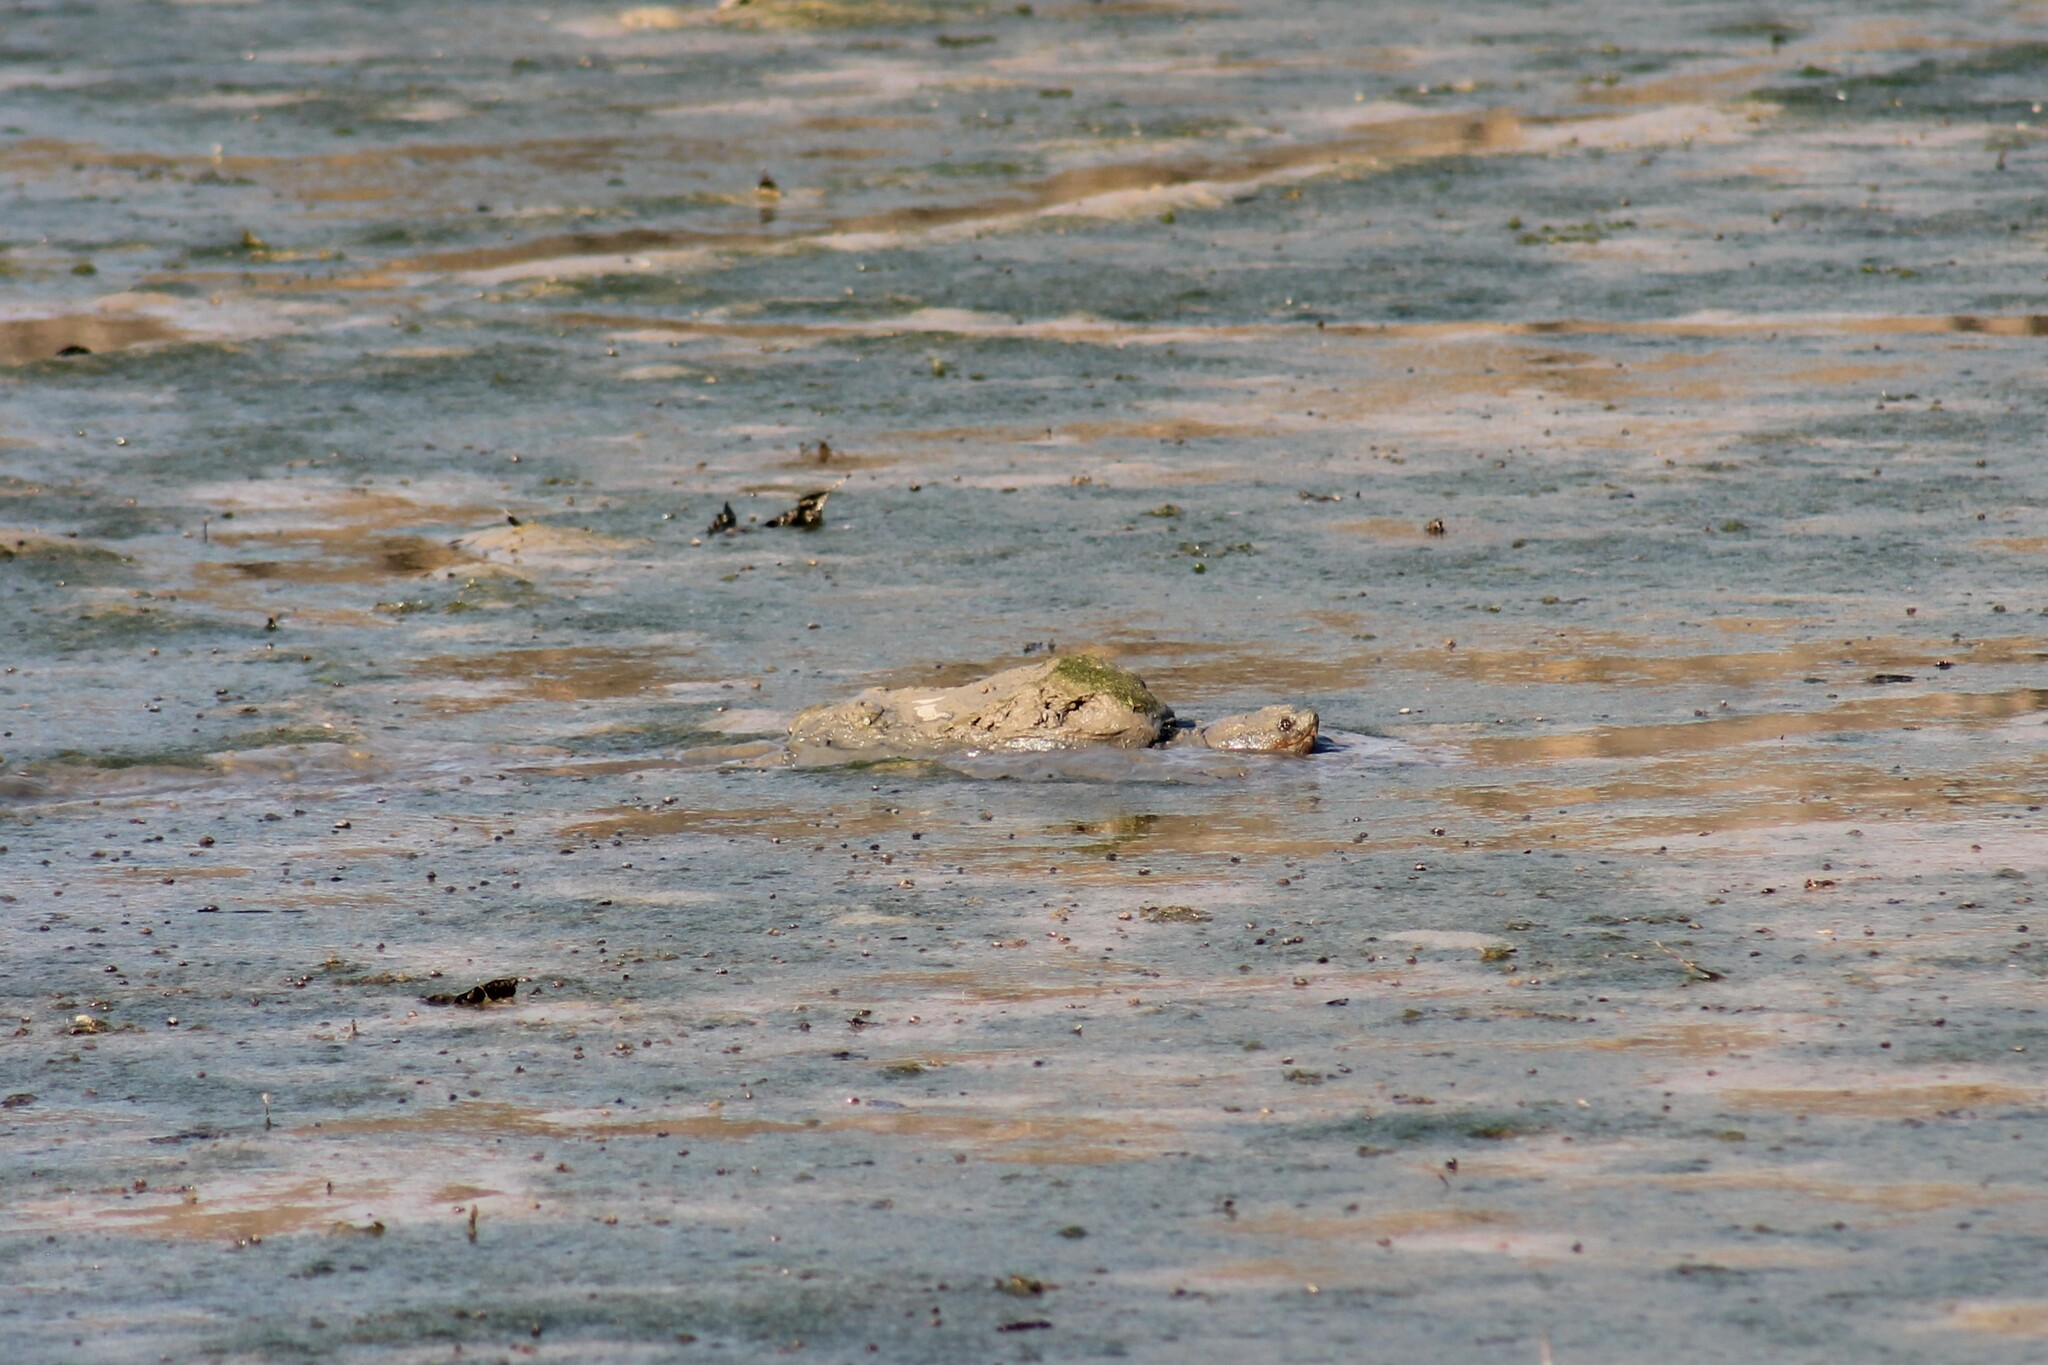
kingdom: Animalia
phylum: Chordata
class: Testudines
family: Chelydridae
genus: Chelydra
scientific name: Chelydra serpentina
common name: Common snapping turtle
